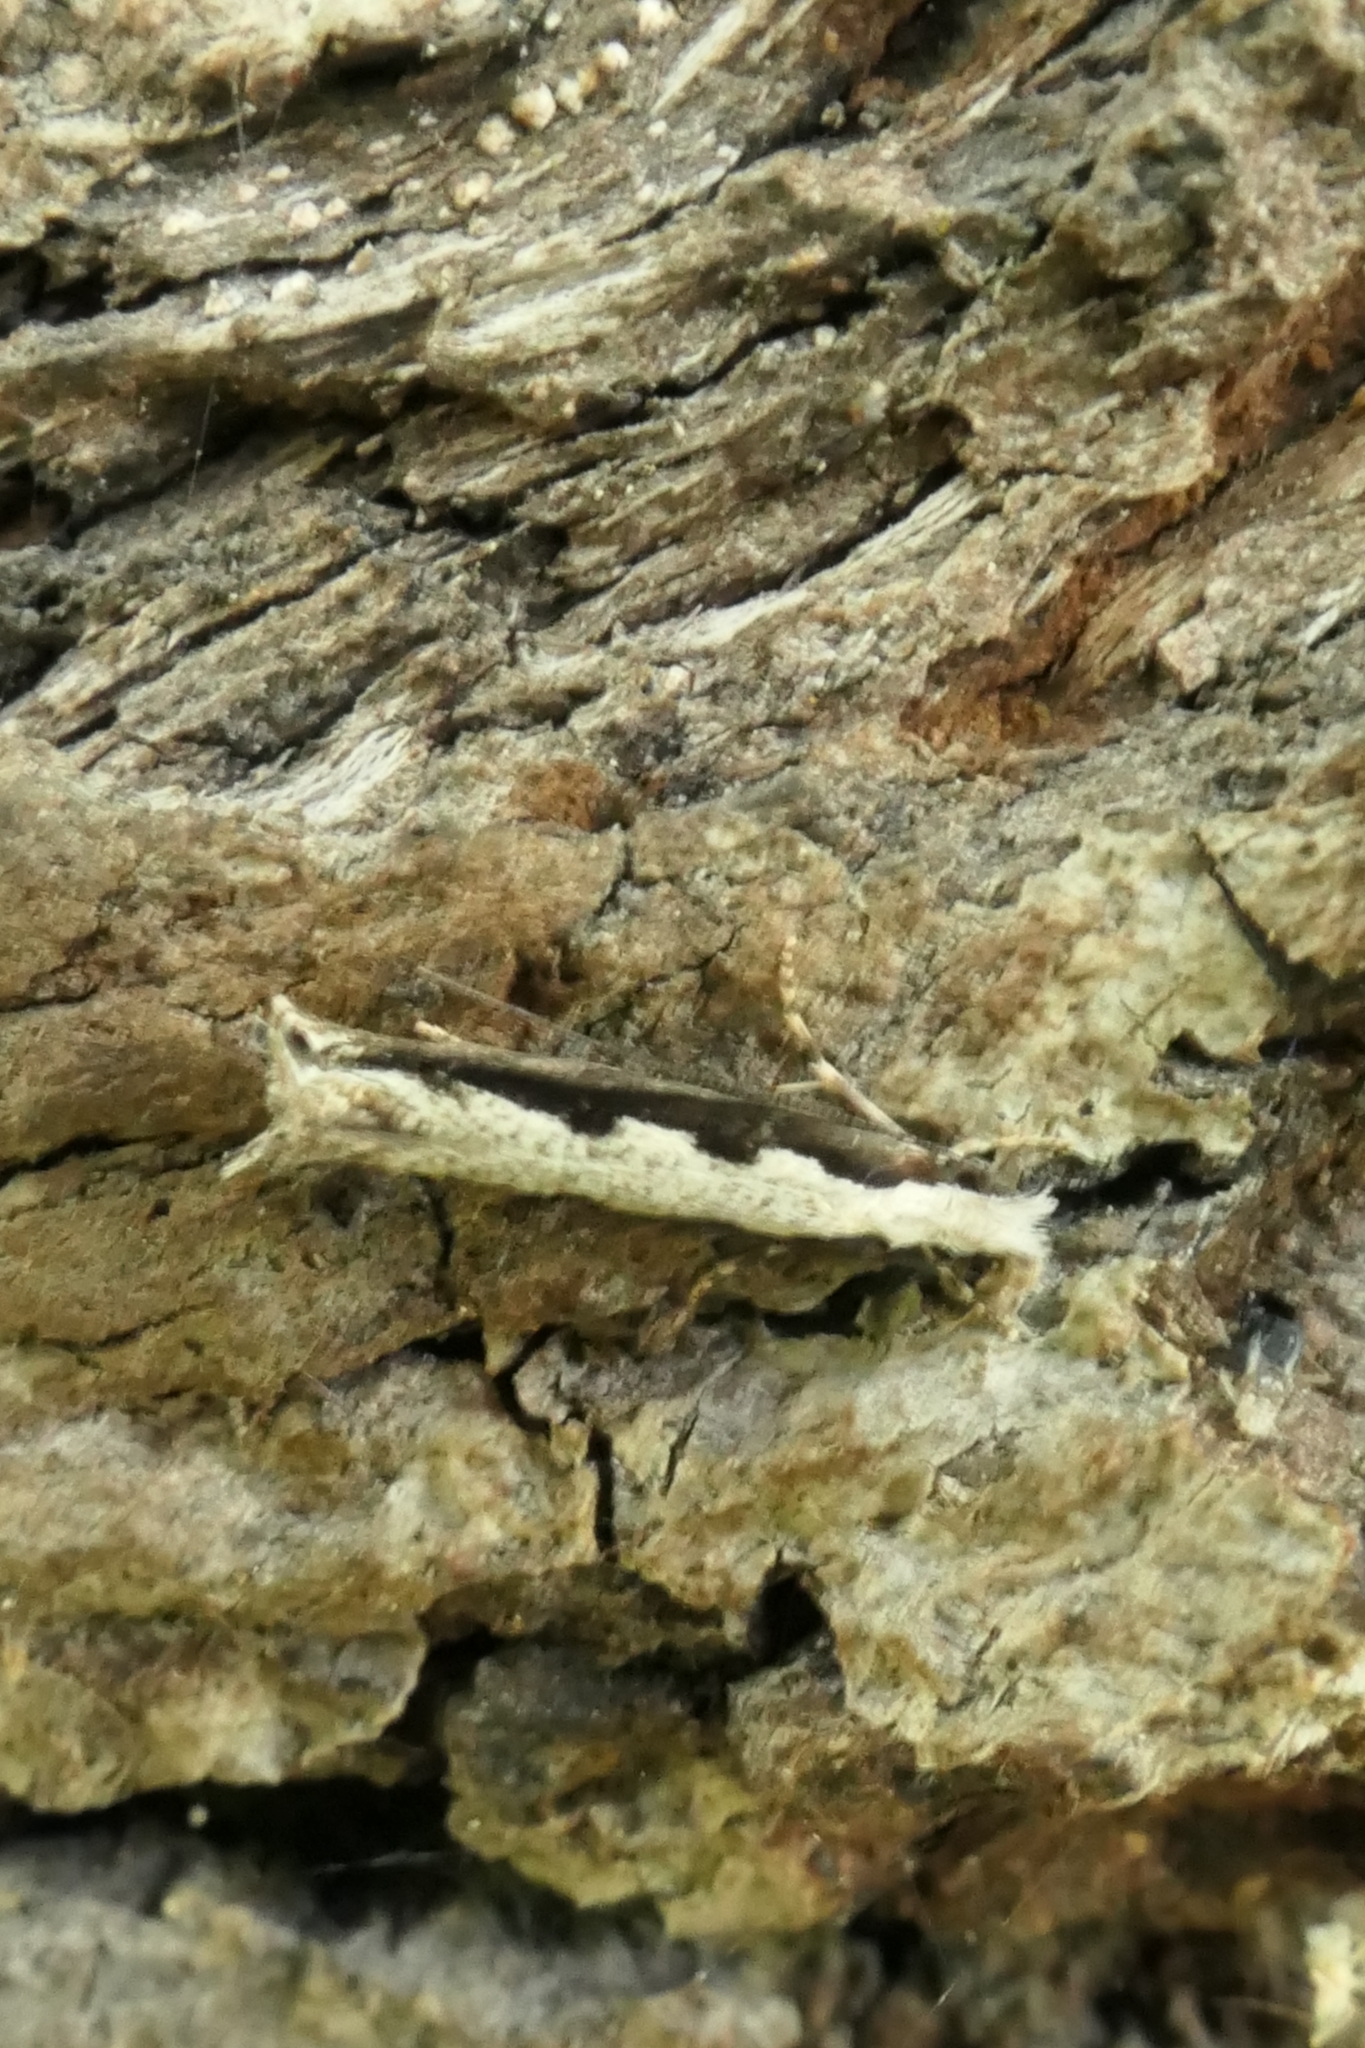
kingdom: Animalia
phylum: Arthropoda
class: Insecta
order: Lepidoptera
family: Tineidae
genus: Erechthias
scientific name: Erechthias fulguritella
